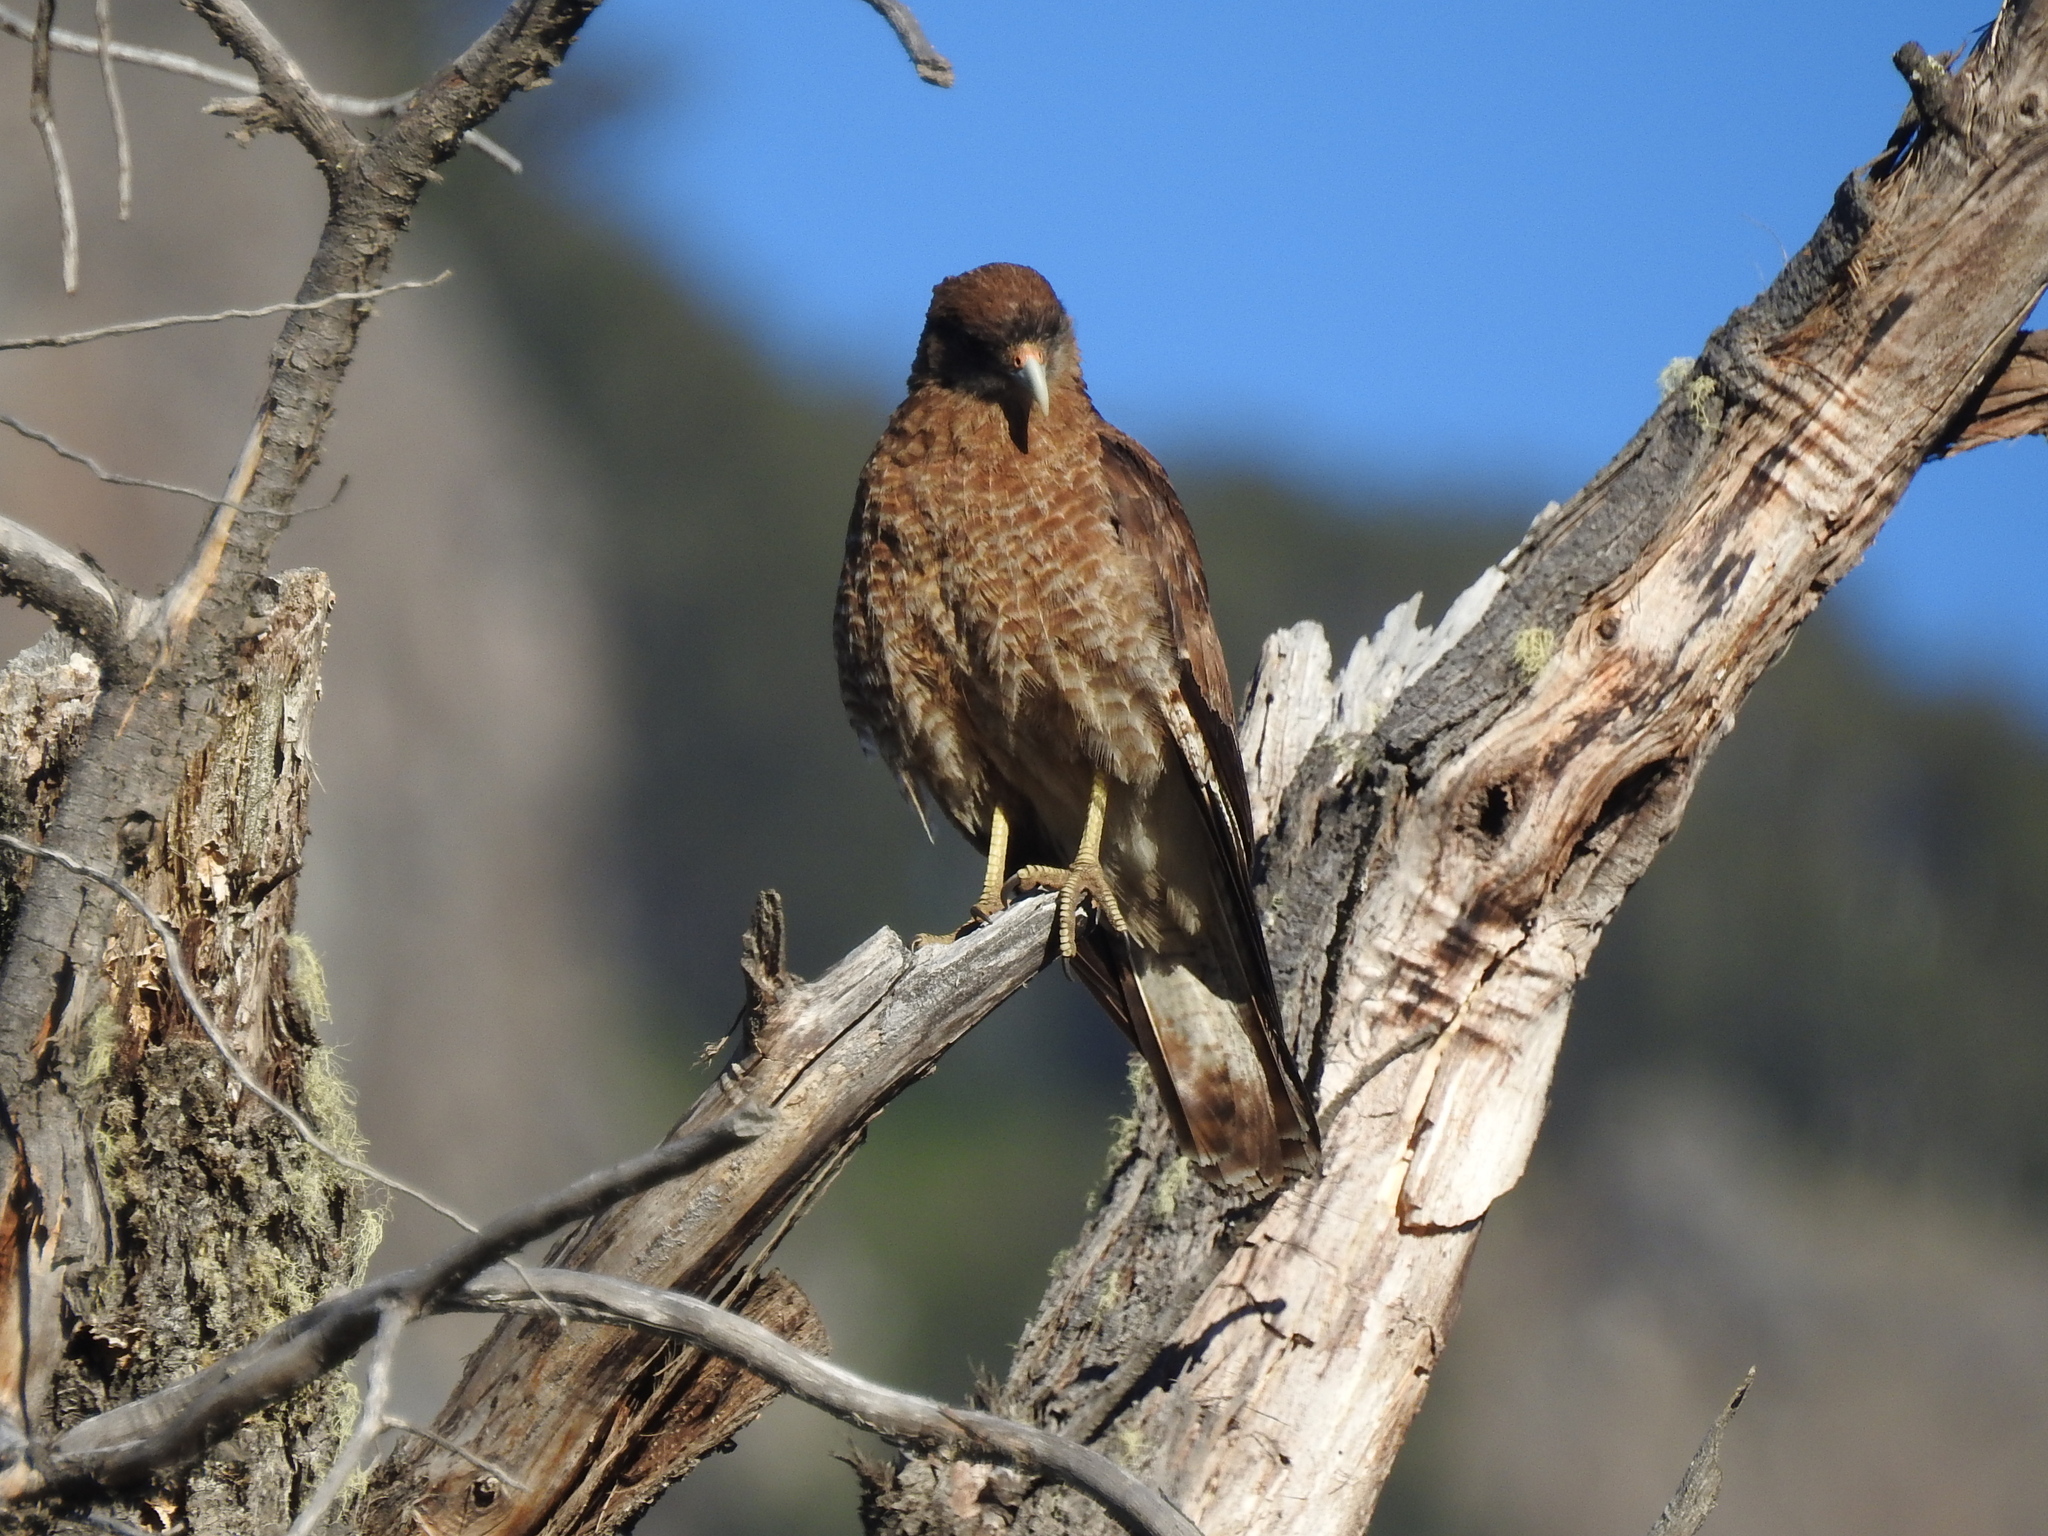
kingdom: Animalia
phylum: Chordata
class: Aves
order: Falconiformes
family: Falconidae
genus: Daptrius
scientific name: Daptrius
